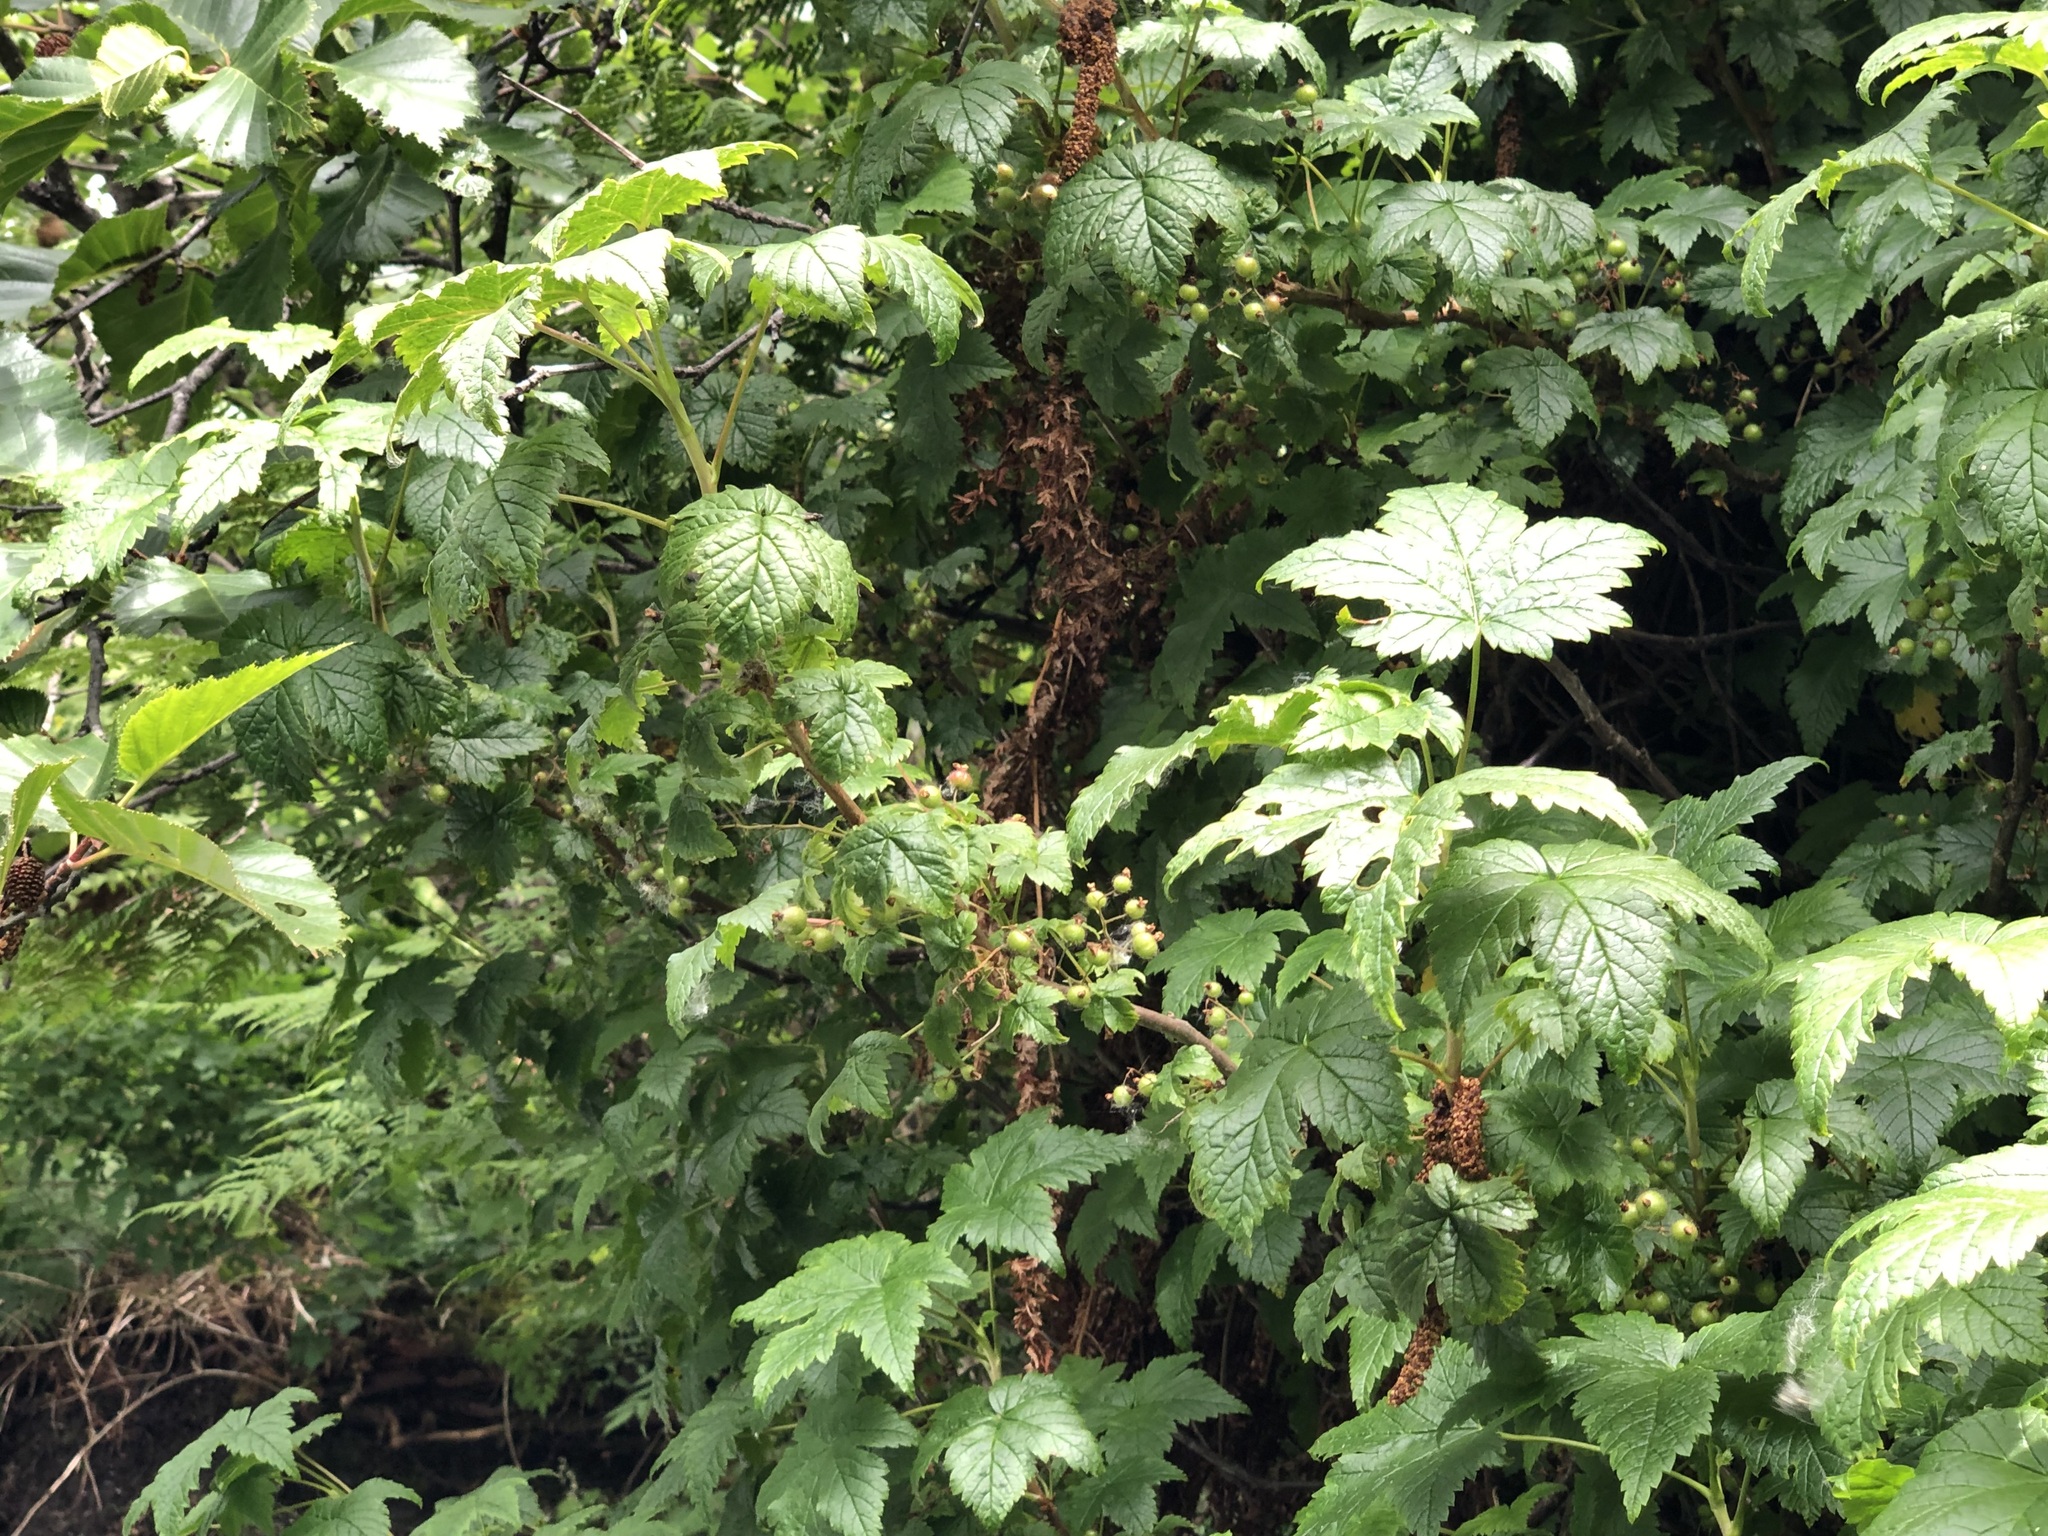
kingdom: Plantae
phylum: Tracheophyta
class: Magnoliopsida
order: Saxifragales
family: Grossulariaceae
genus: Ribes
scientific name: Ribes bracteosum
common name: California black currant
